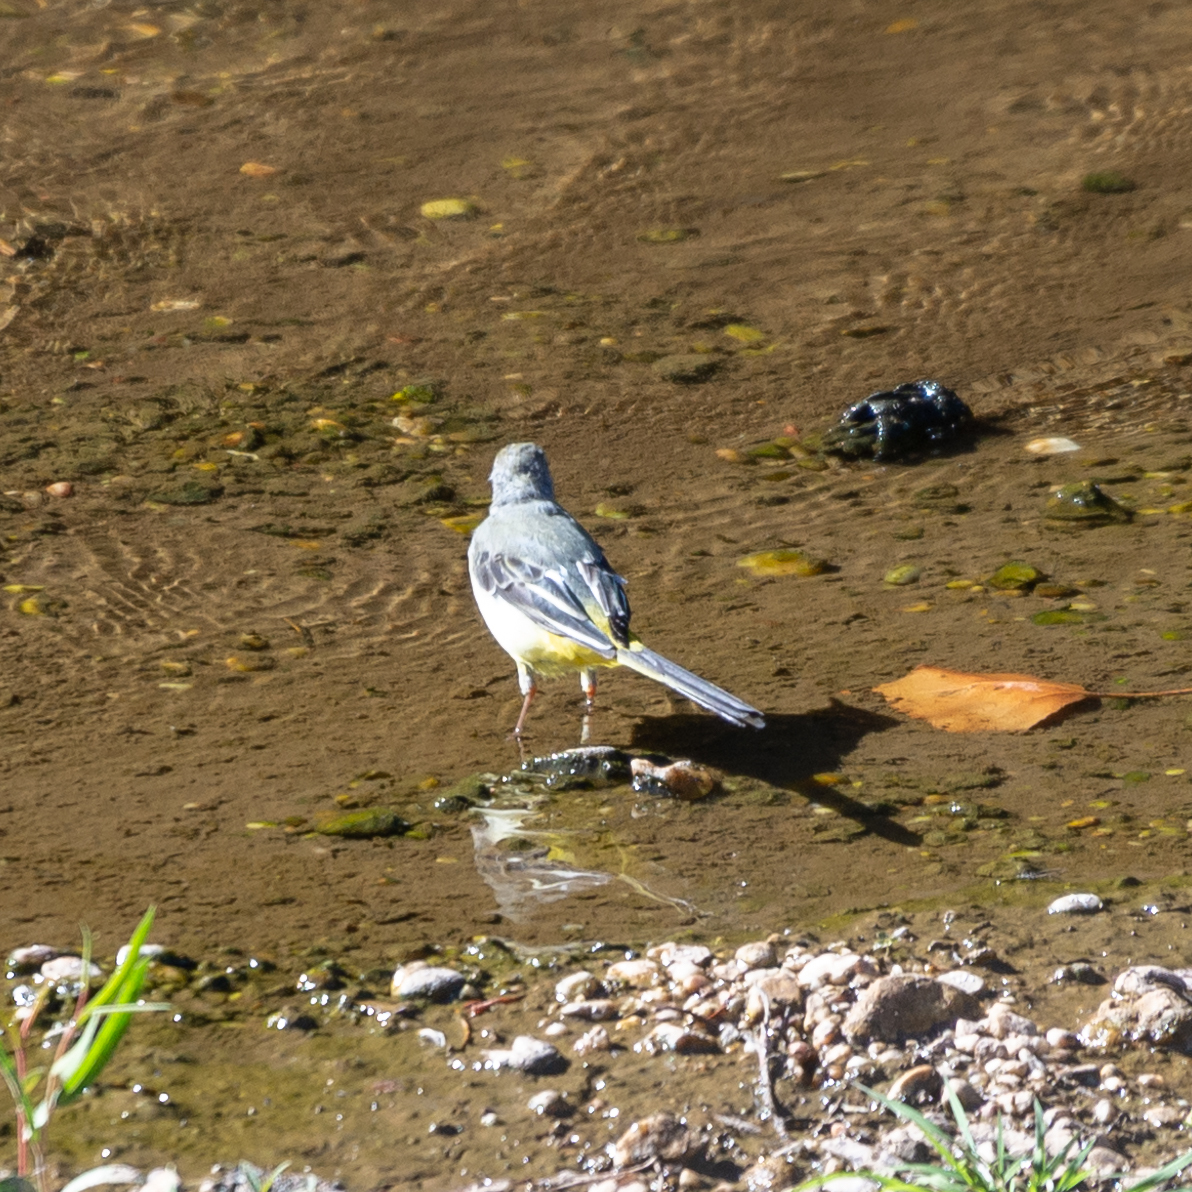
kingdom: Animalia
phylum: Chordata
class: Aves
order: Passeriformes
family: Motacillidae
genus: Motacilla
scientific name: Motacilla cinerea
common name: Grey wagtail
